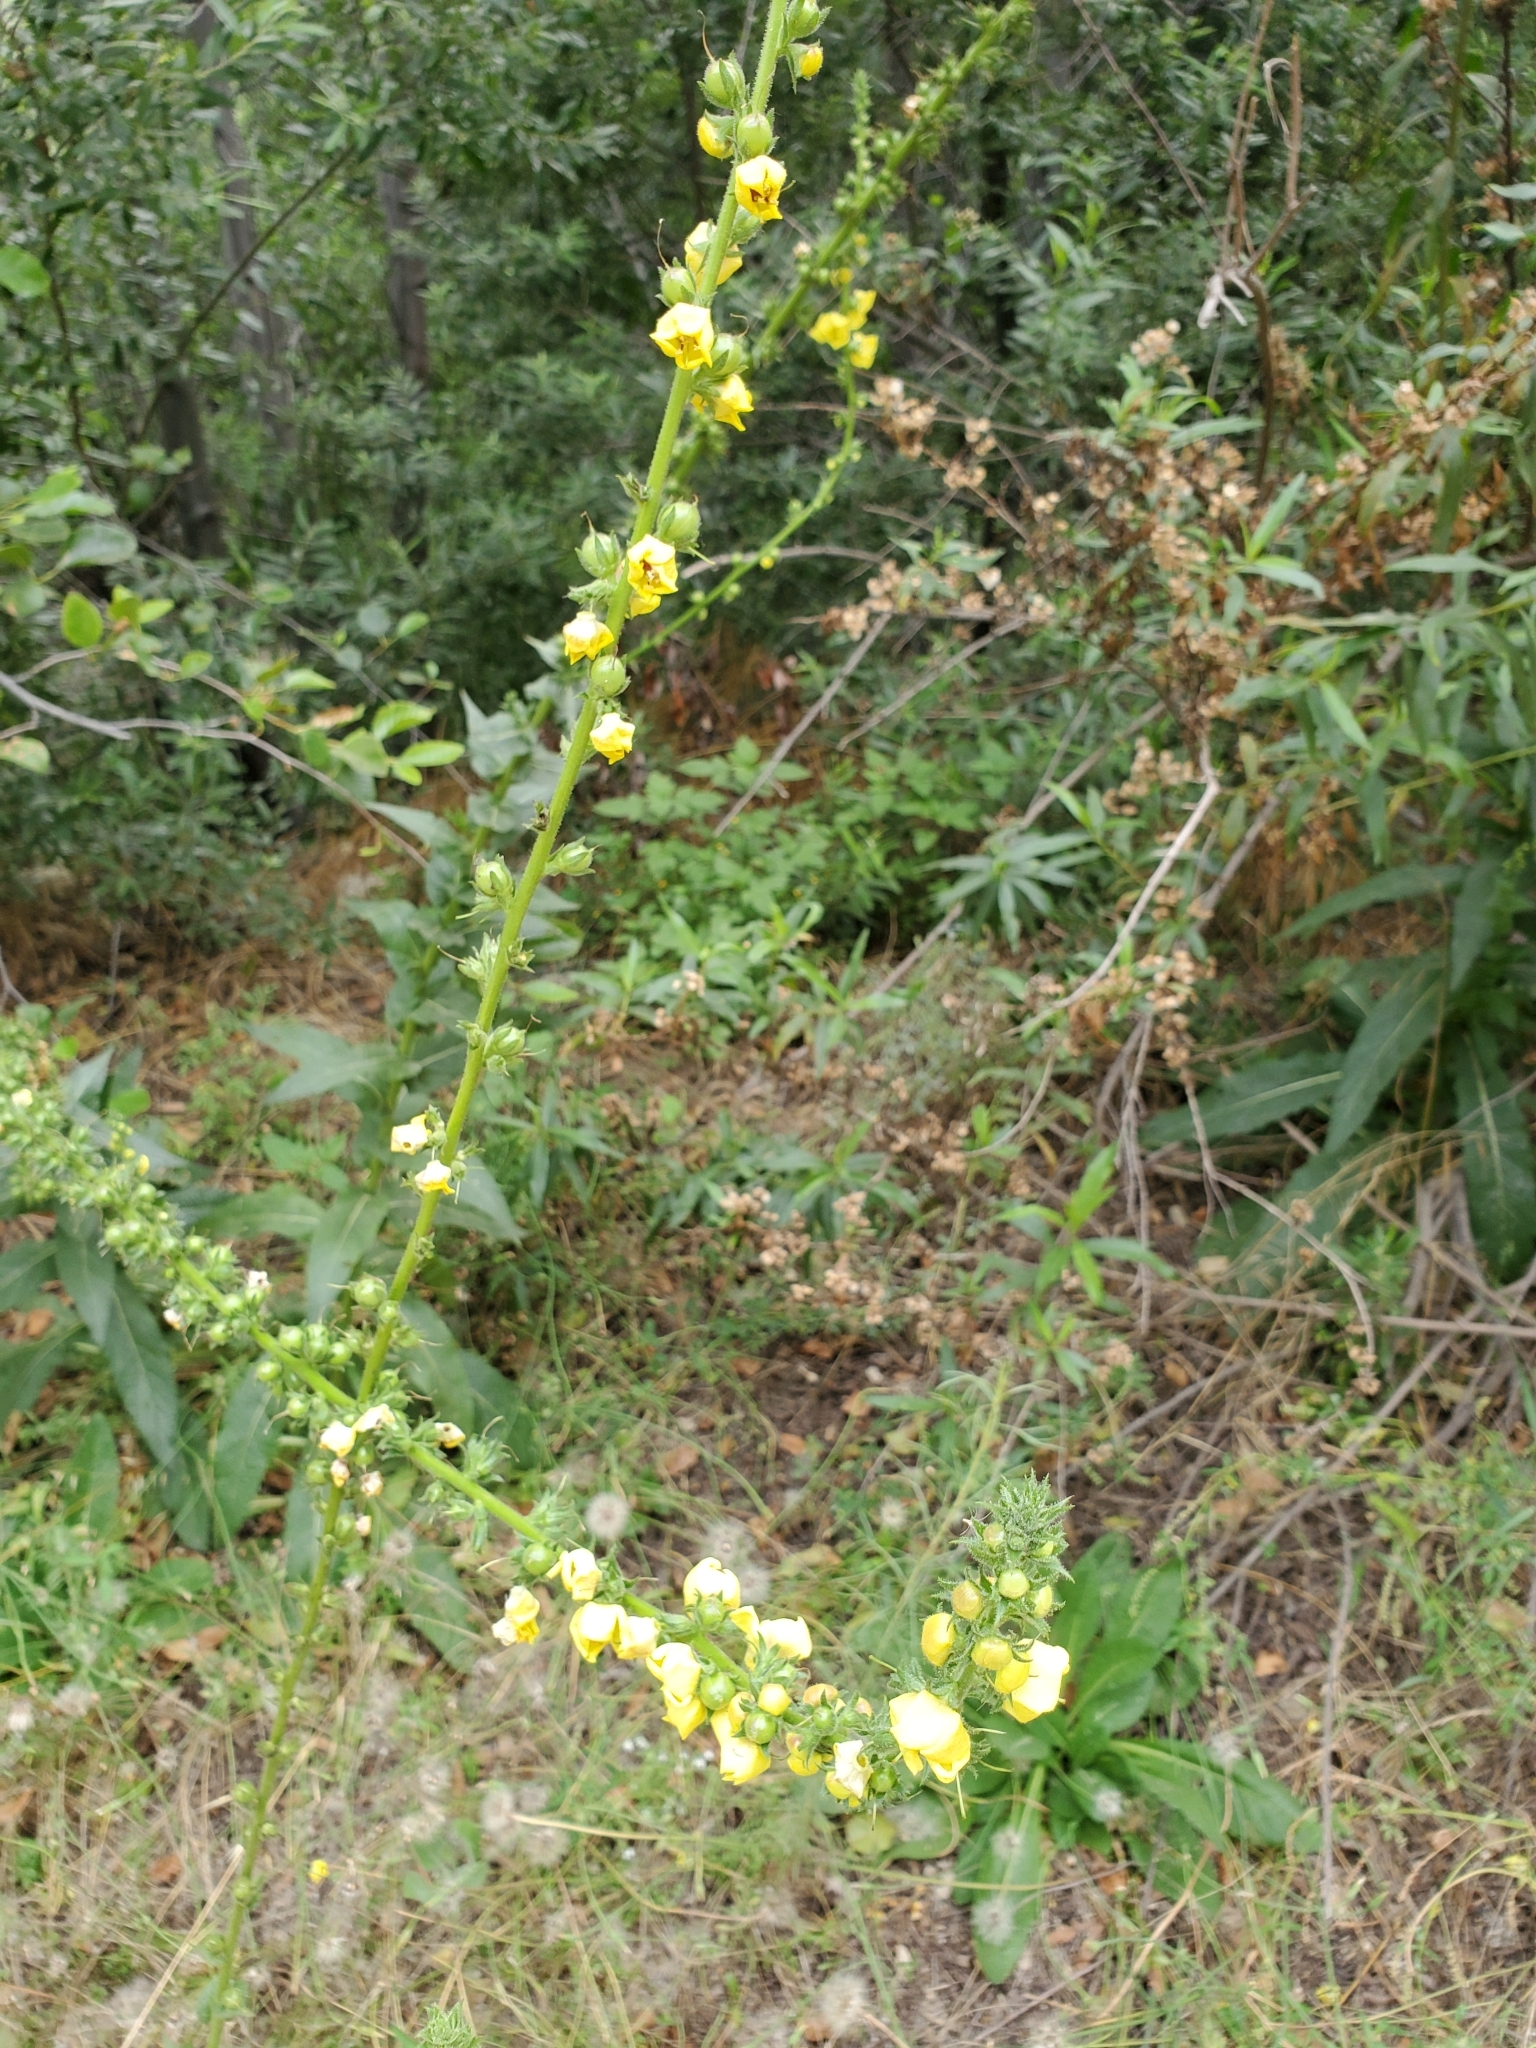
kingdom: Plantae
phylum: Tracheophyta
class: Magnoliopsida
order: Lamiales
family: Scrophulariaceae
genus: Verbascum
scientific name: Verbascum virgatum
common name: Twiggy mullein
